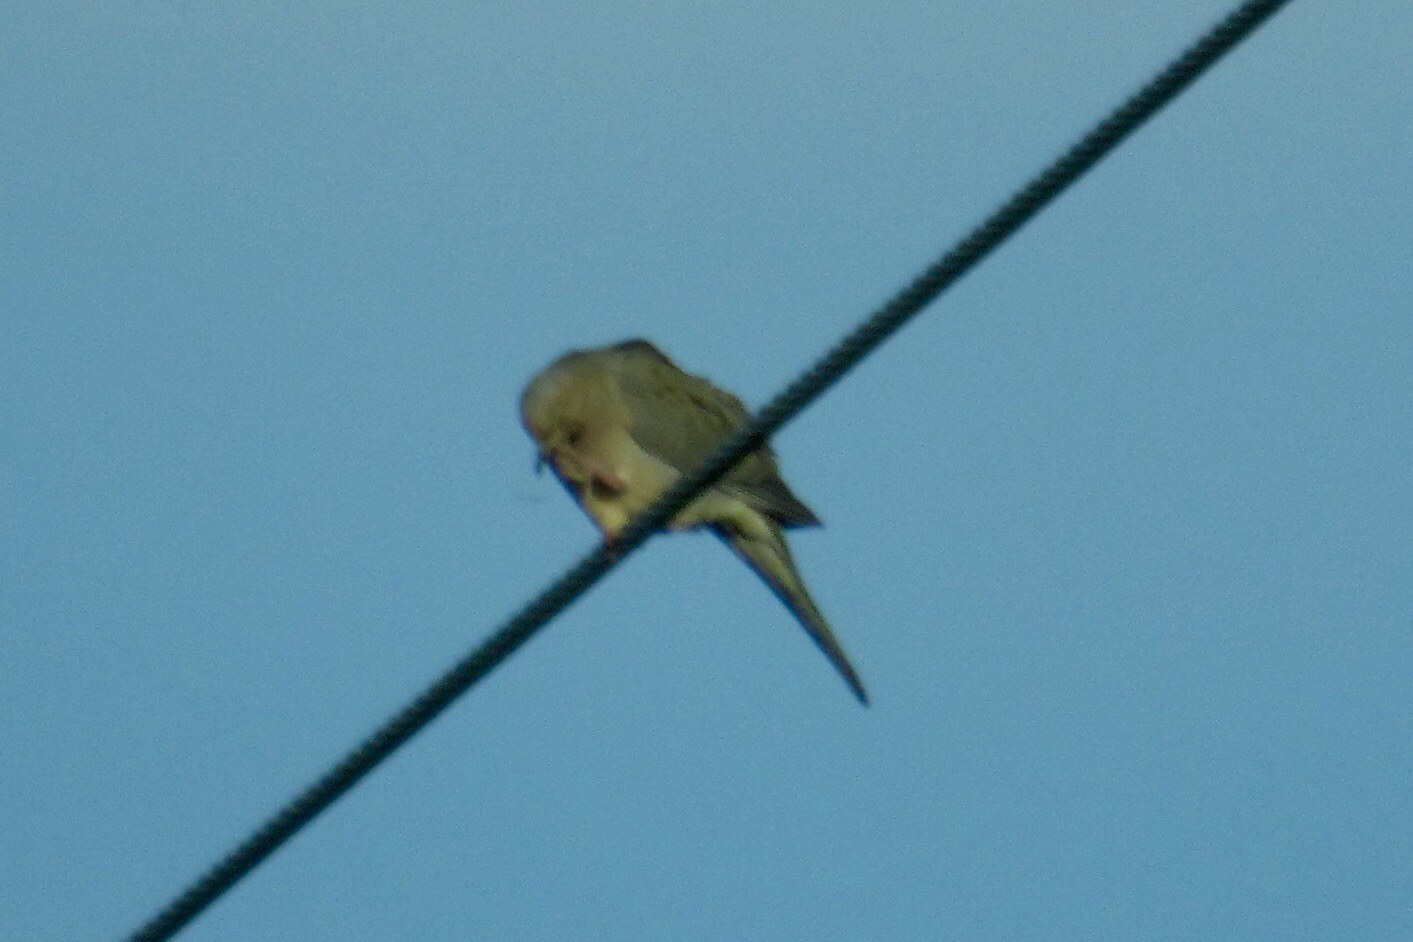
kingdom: Animalia
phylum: Chordata
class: Aves
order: Columbiformes
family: Columbidae
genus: Zenaida
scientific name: Zenaida macroura
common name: Mourning dove
